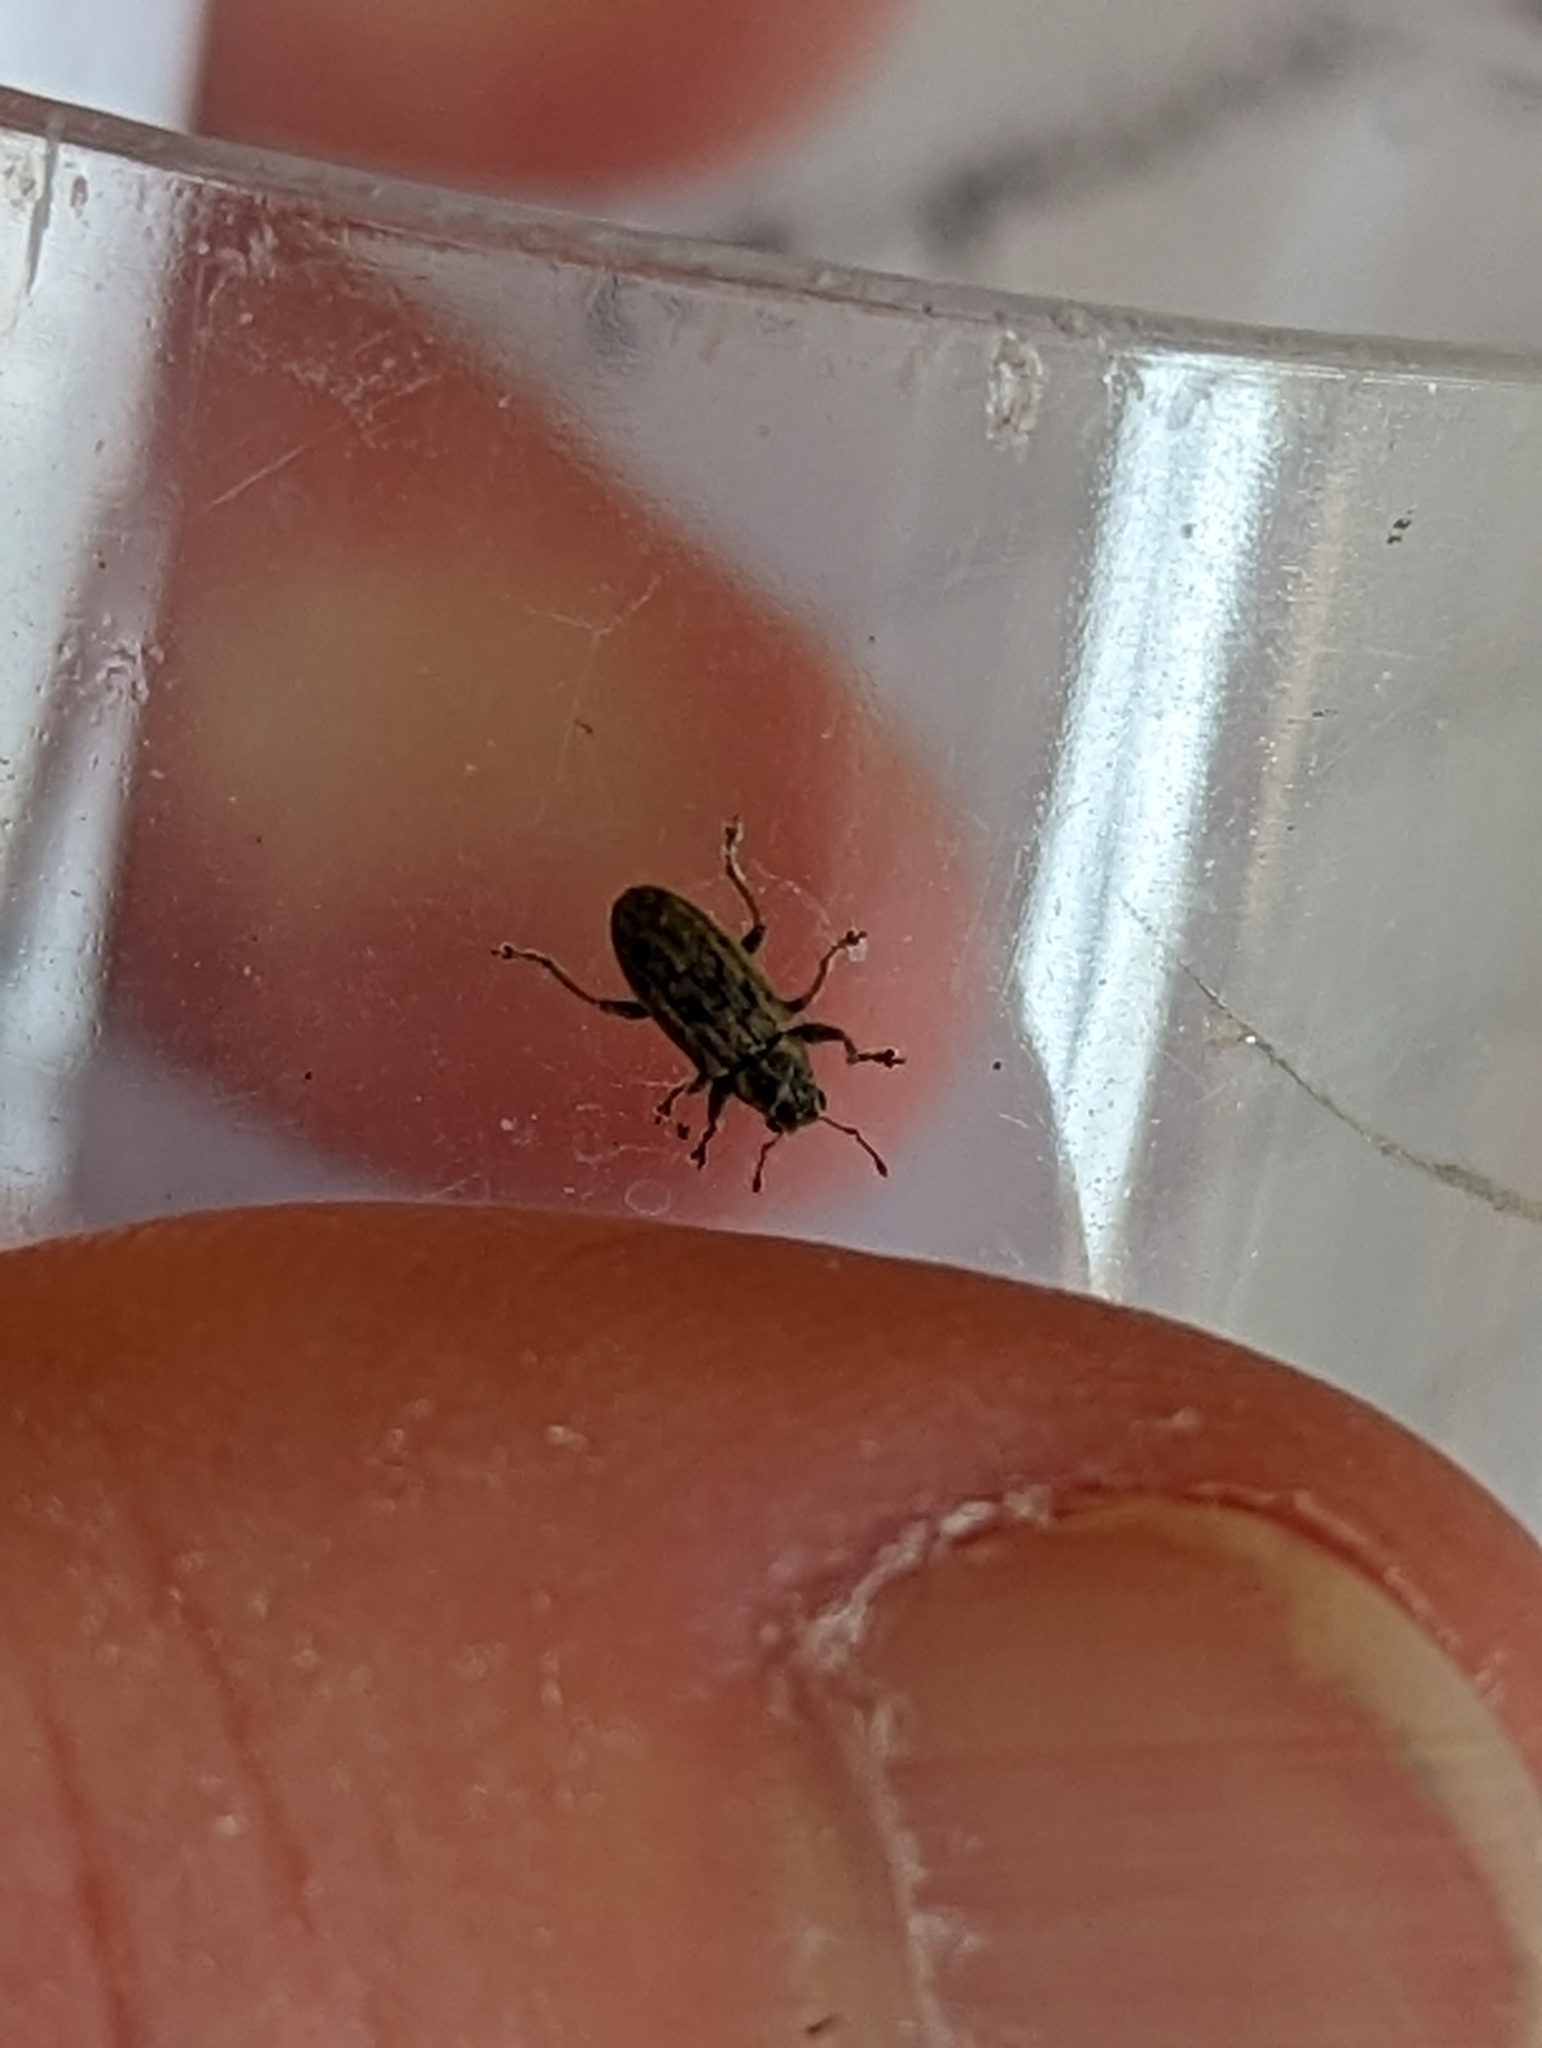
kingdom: Animalia
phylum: Arthropoda
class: Insecta
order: Coleoptera
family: Curculionidae
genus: Sitona
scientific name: Sitona lineatus
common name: Weevil
